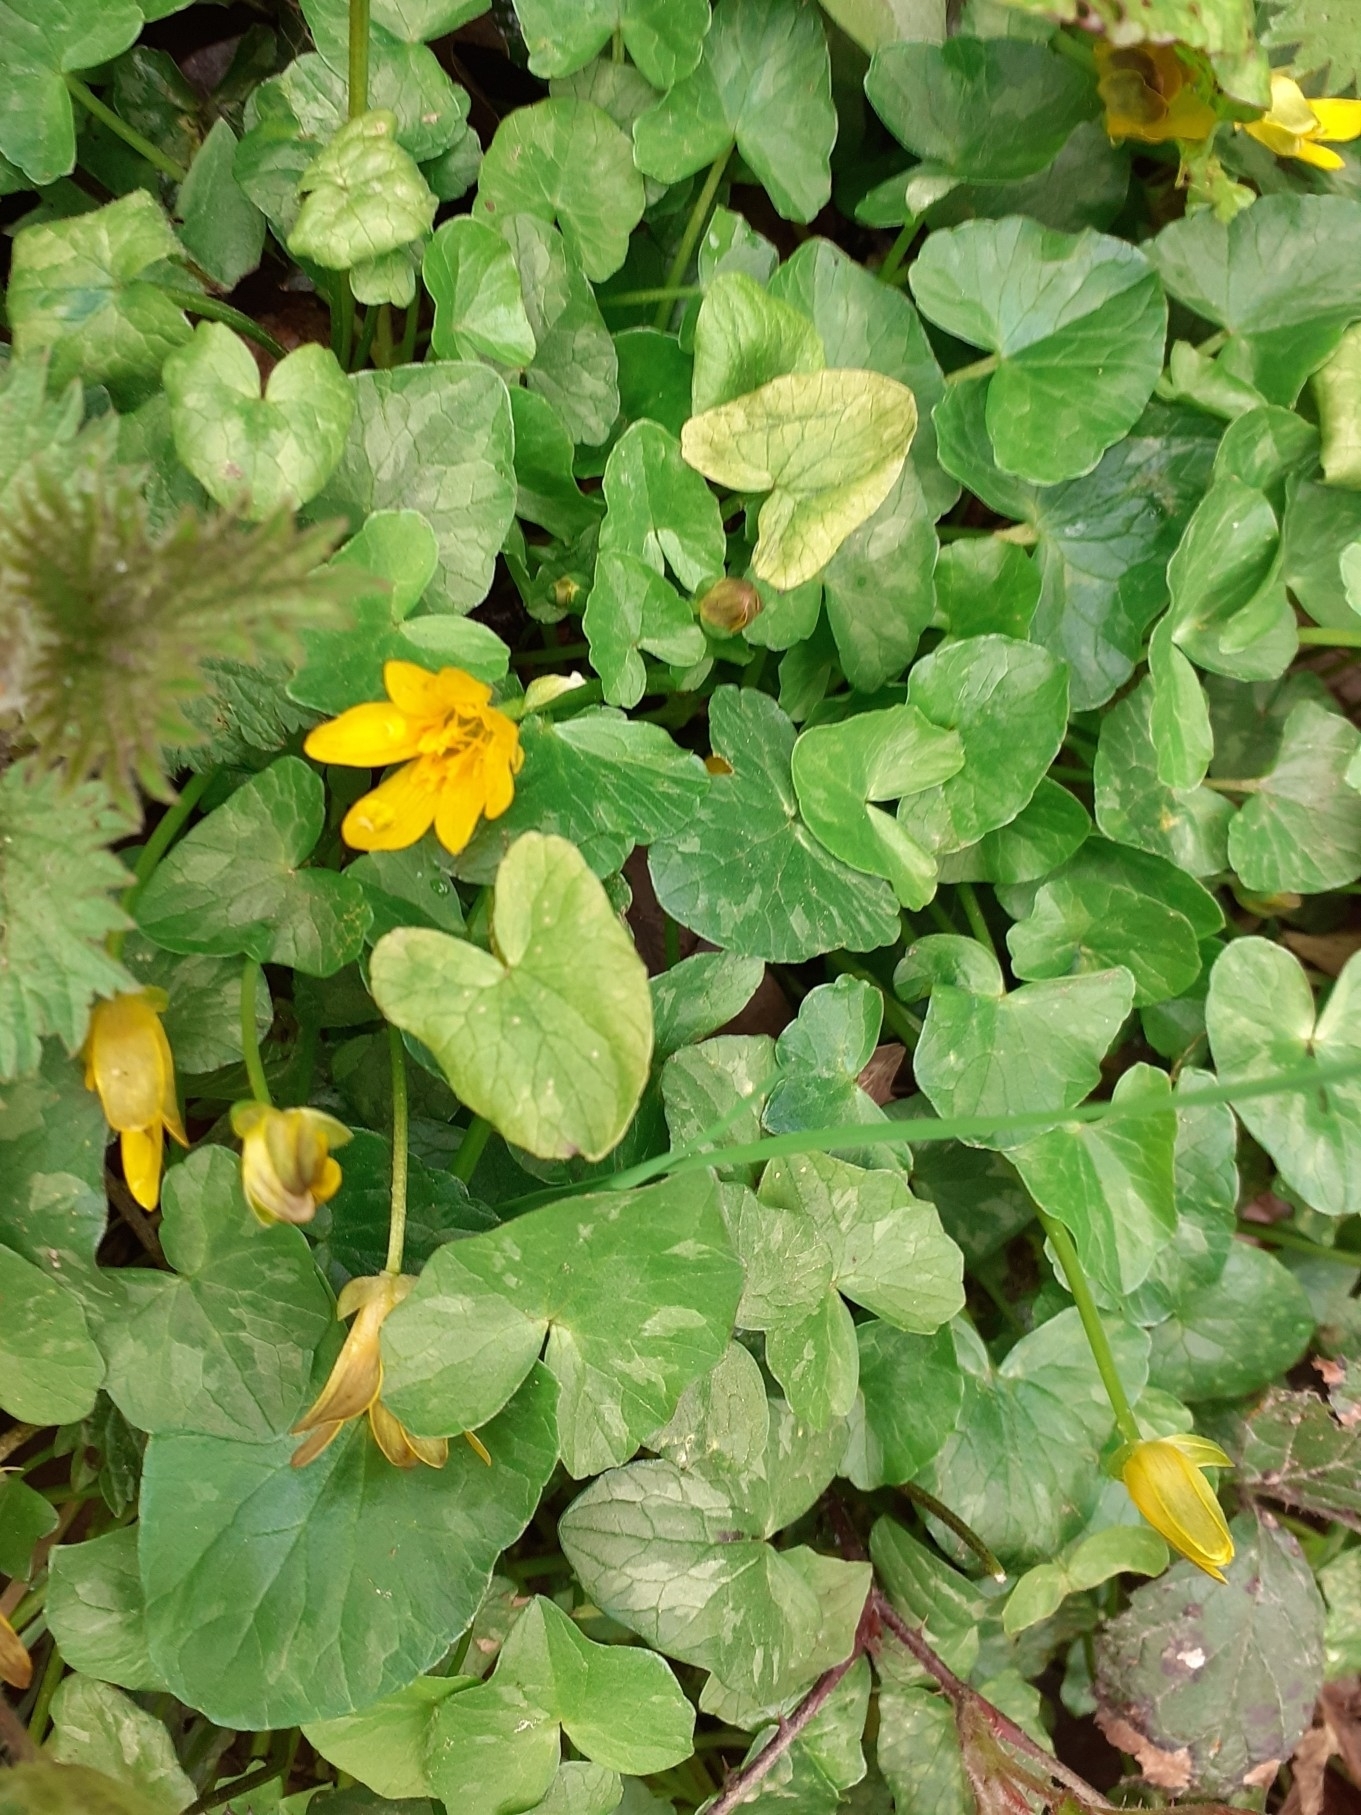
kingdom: Plantae
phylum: Tracheophyta
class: Magnoliopsida
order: Ranunculales
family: Ranunculaceae
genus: Ficaria
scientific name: Ficaria verna
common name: Lesser celandine
